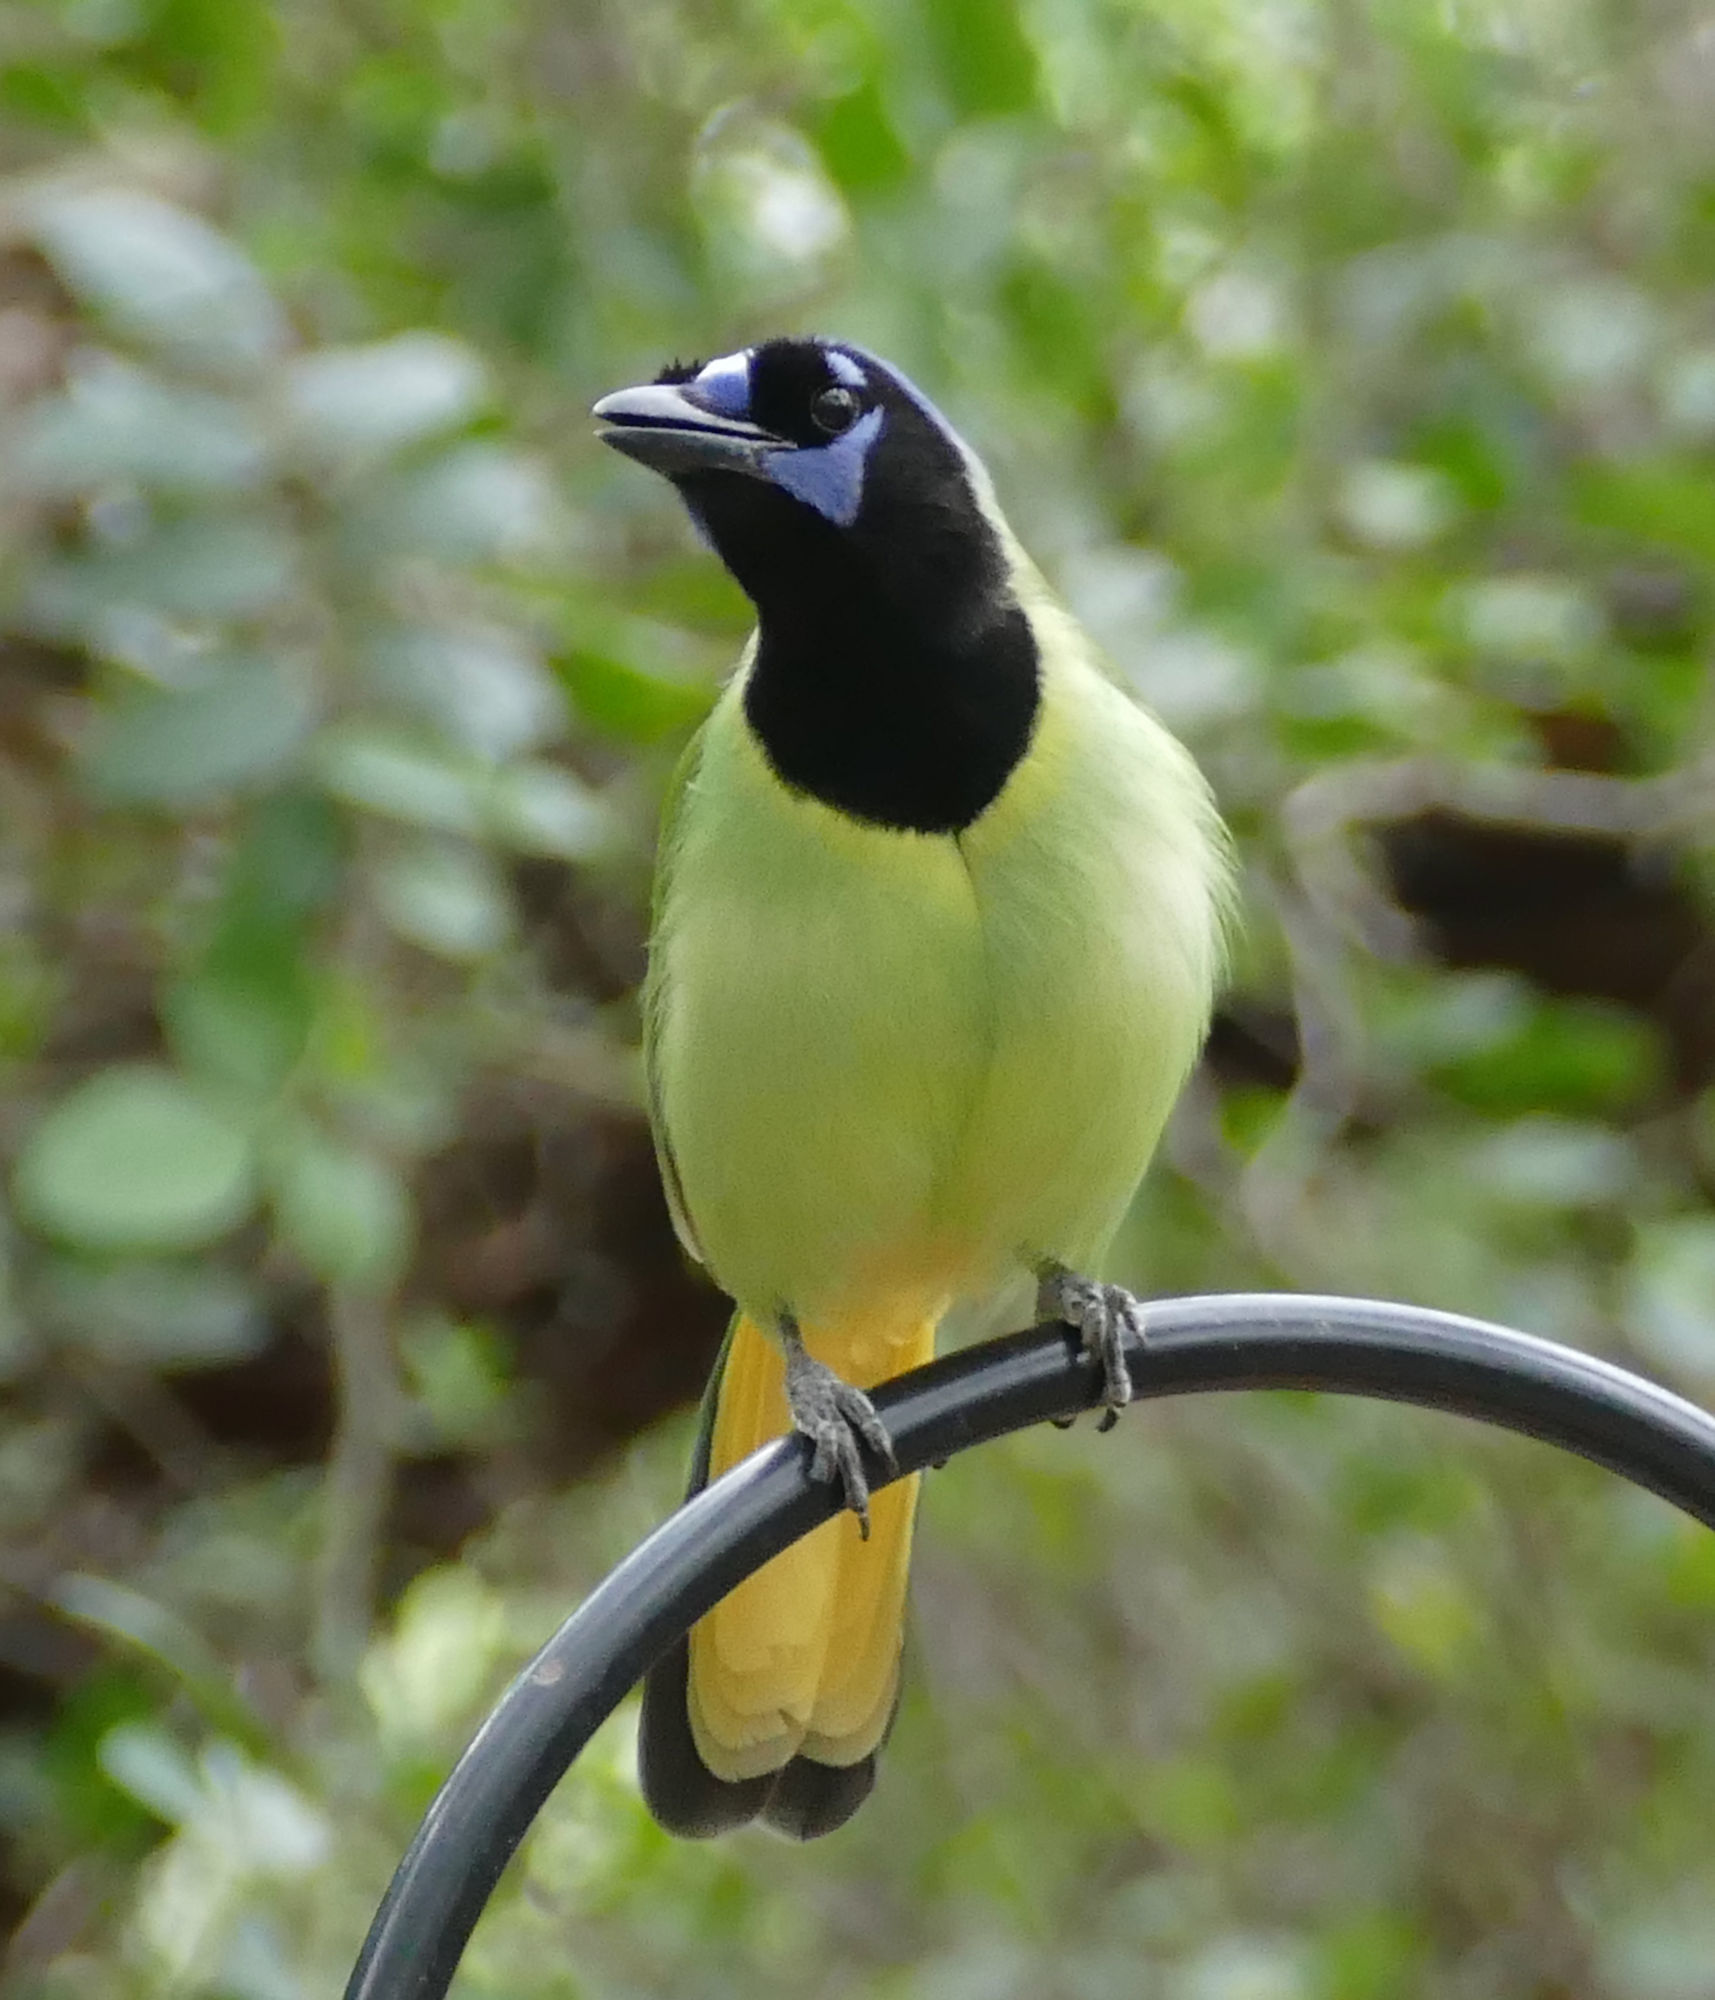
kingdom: Animalia
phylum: Chordata
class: Aves
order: Passeriformes
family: Corvidae
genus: Cyanocorax
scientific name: Cyanocorax yncas
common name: Green jay
